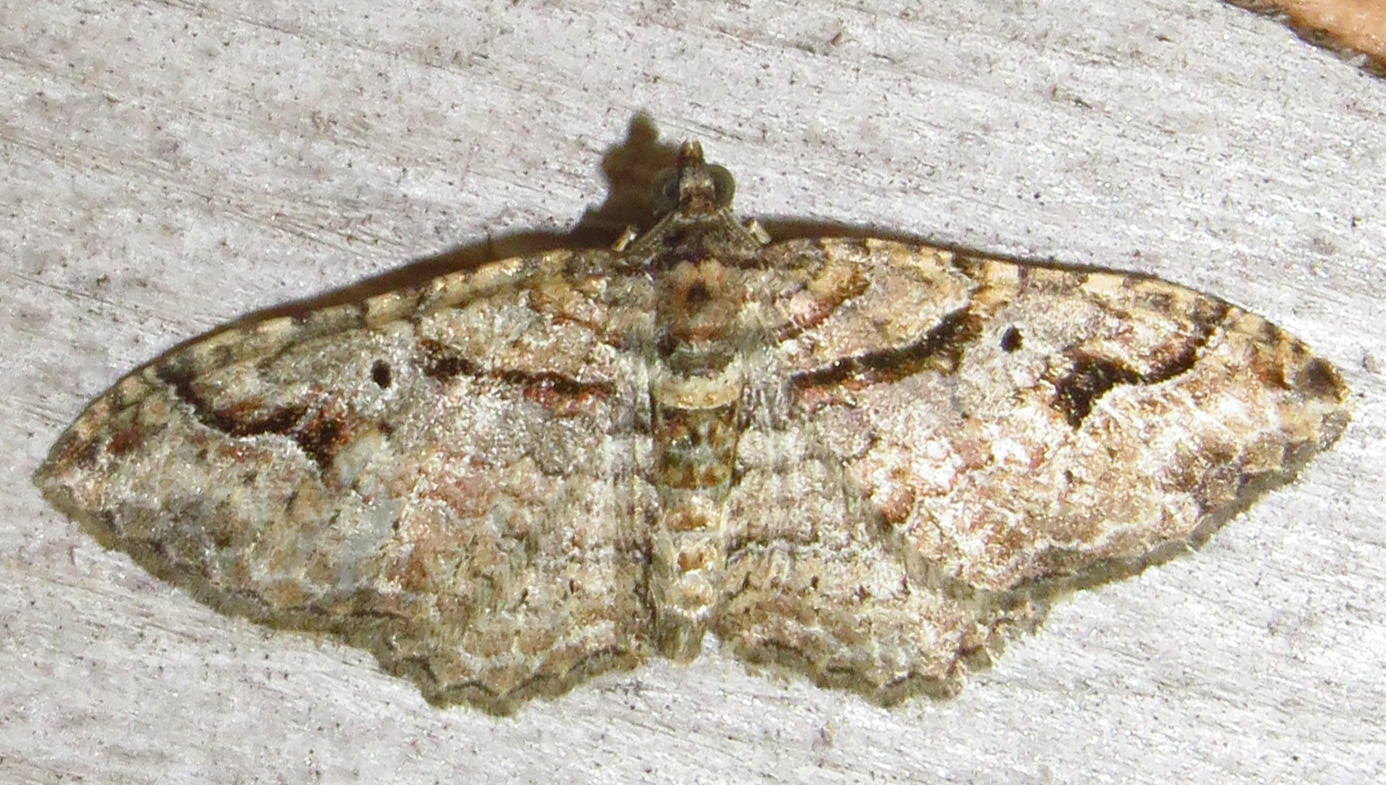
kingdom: Animalia
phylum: Arthropoda
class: Insecta
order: Lepidoptera
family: Geometridae
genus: Costaconvexa
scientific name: Costaconvexa centrostrigaria
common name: Bent-line carpet
